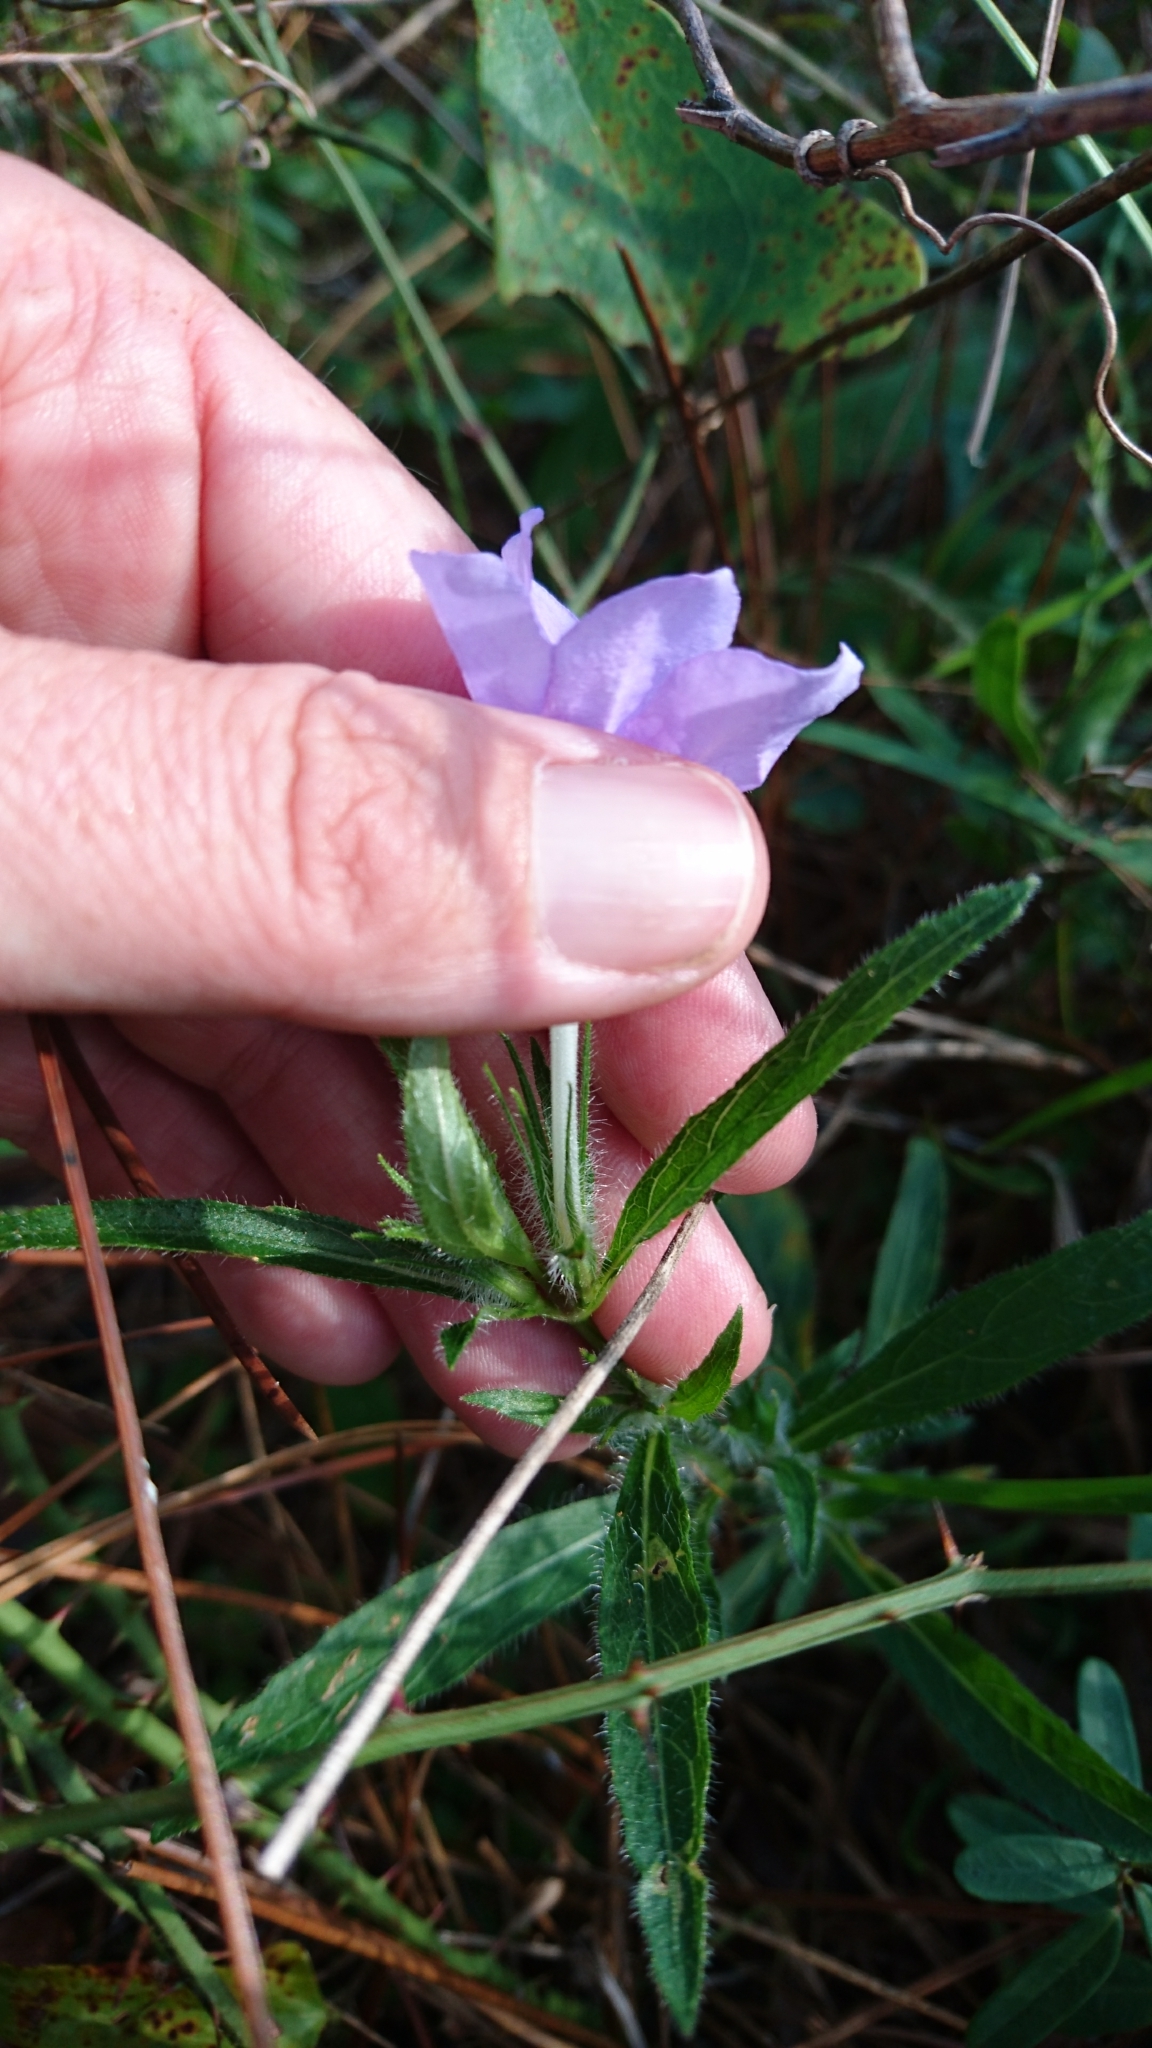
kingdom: Plantae
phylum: Tracheophyta
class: Magnoliopsida
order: Lamiales
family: Acanthaceae
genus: Ruellia
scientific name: Ruellia caroliniensis
